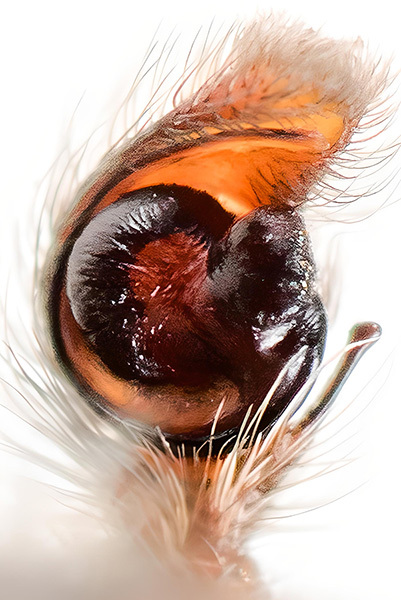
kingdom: Animalia
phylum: Arthropoda
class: Arachnida
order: Araneae
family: Salticidae
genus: Mogrus
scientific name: Mogrus antoninus
